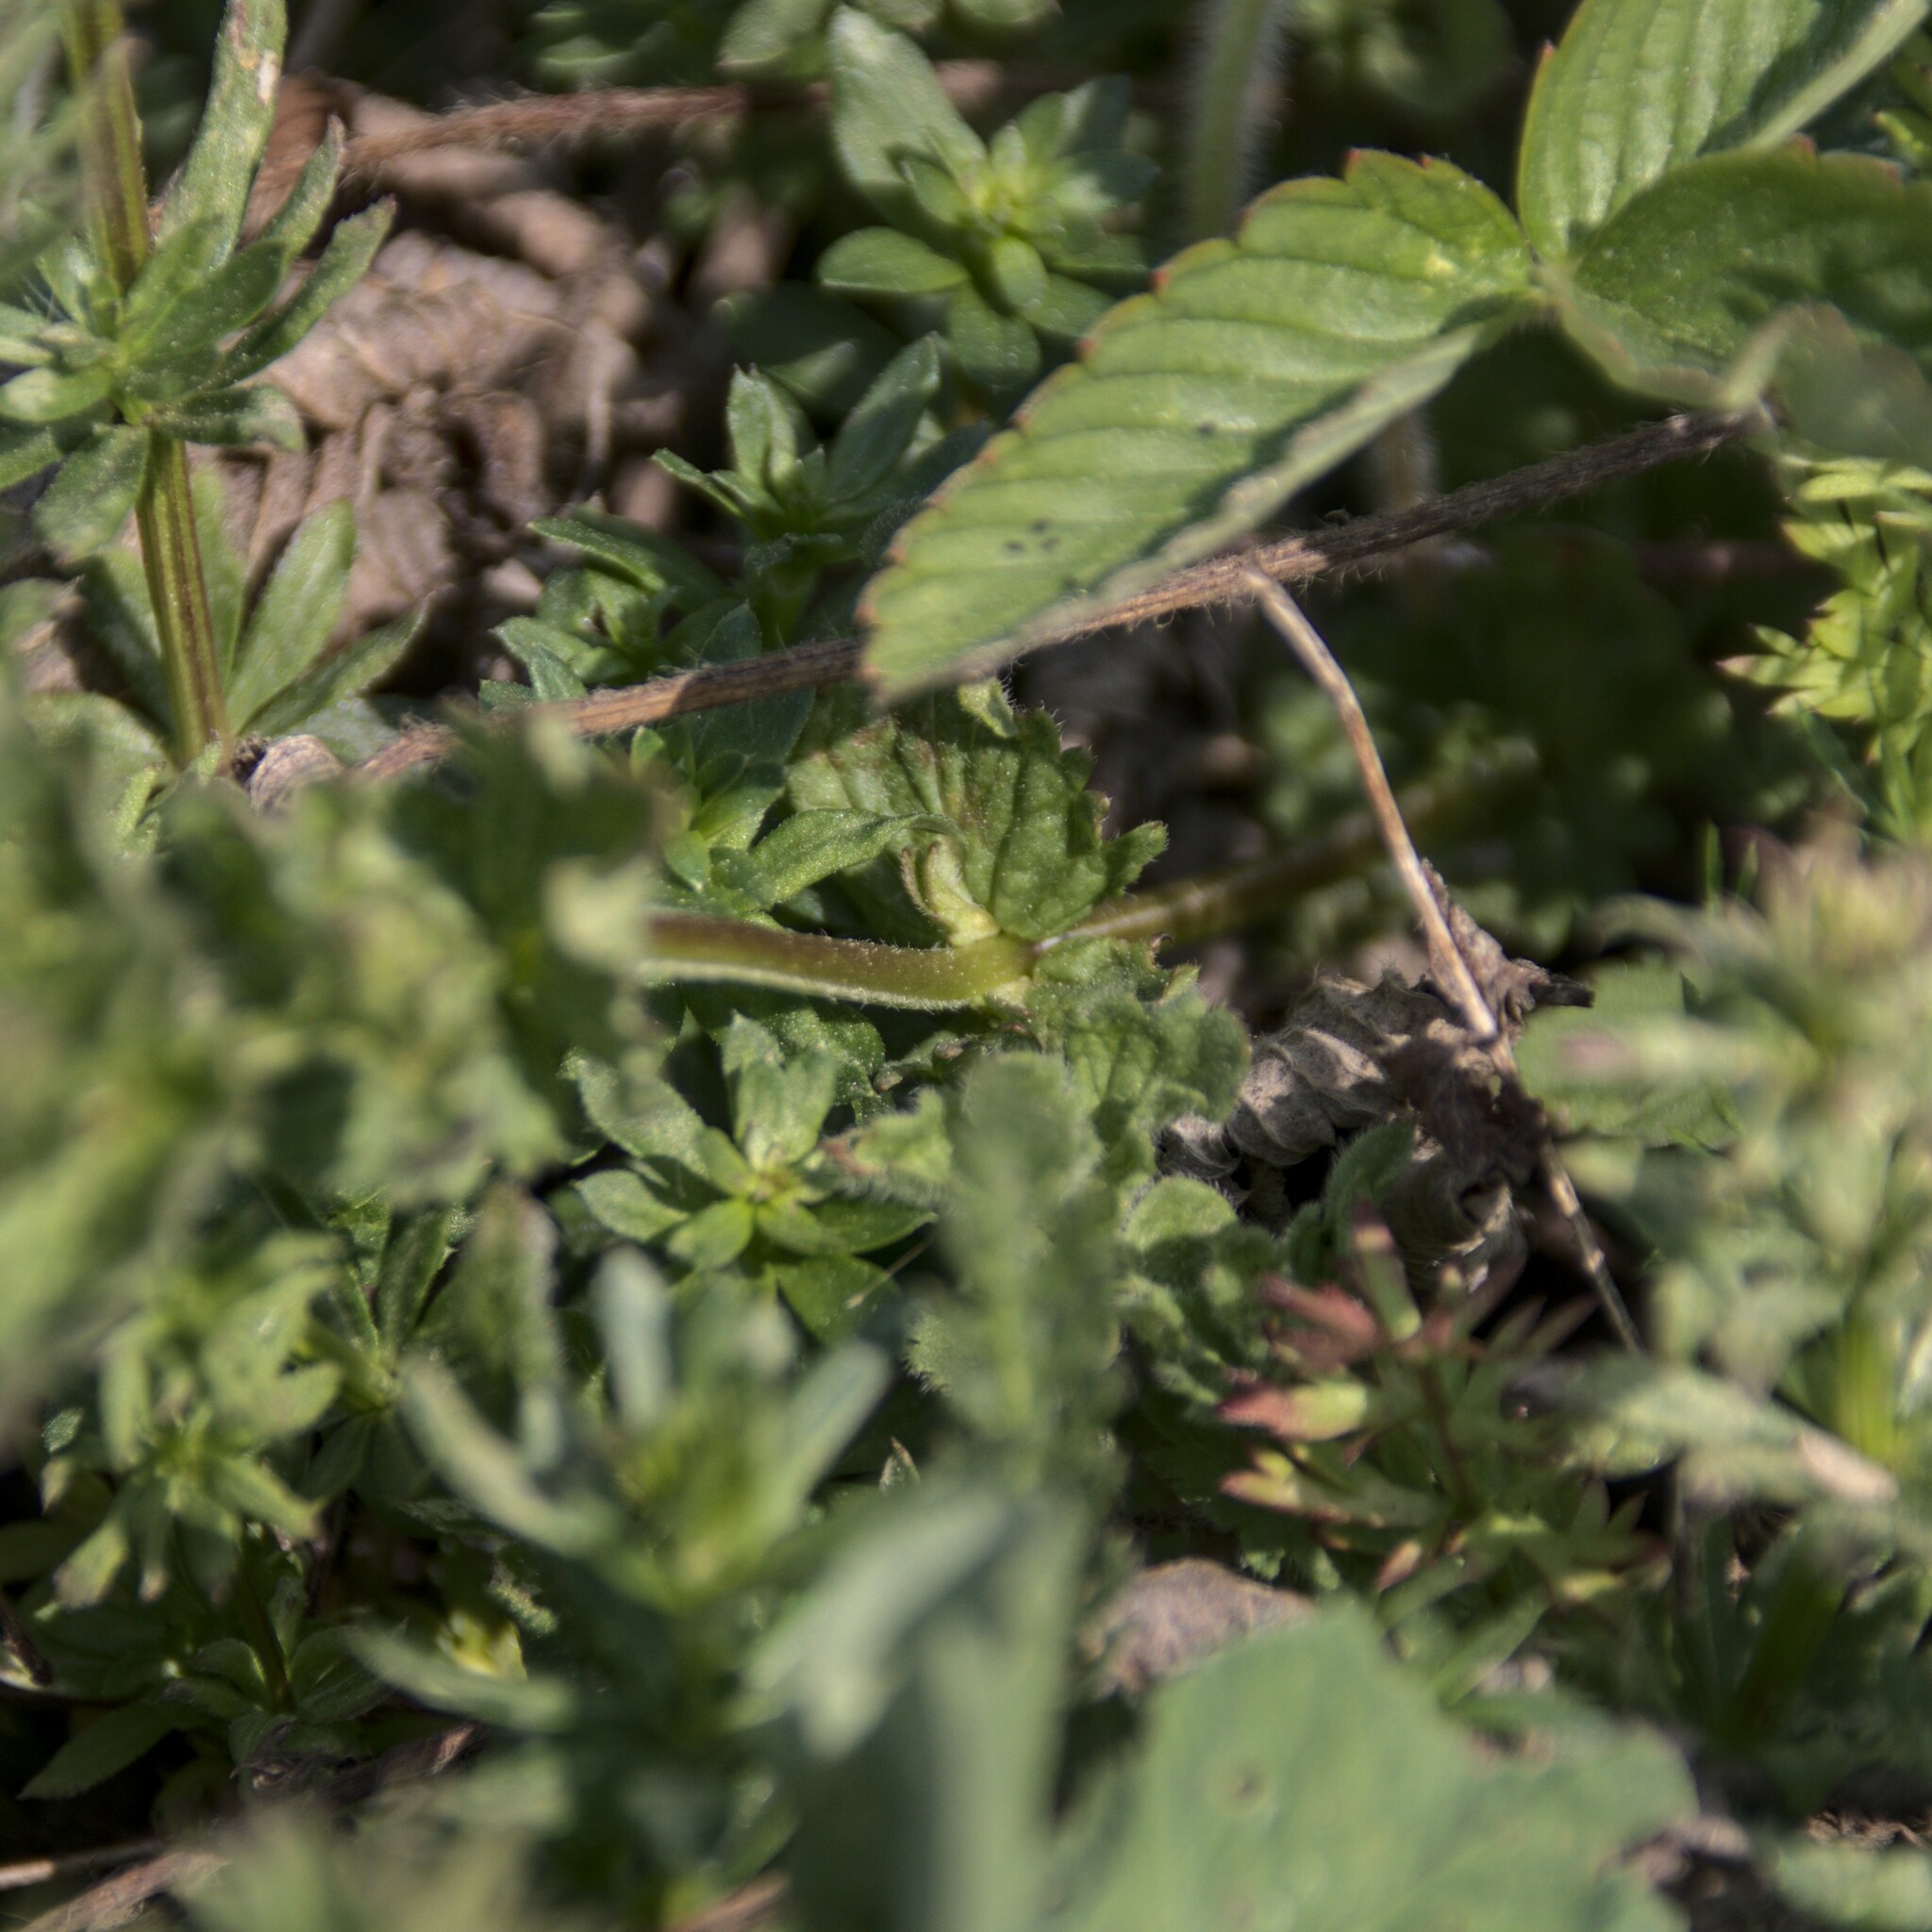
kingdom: Plantae
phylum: Tracheophyta
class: Magnoliopsida
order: Lamiales
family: Plantaginaceae
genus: Veronica
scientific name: Veronica chamaedrys
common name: Germander speedwell
